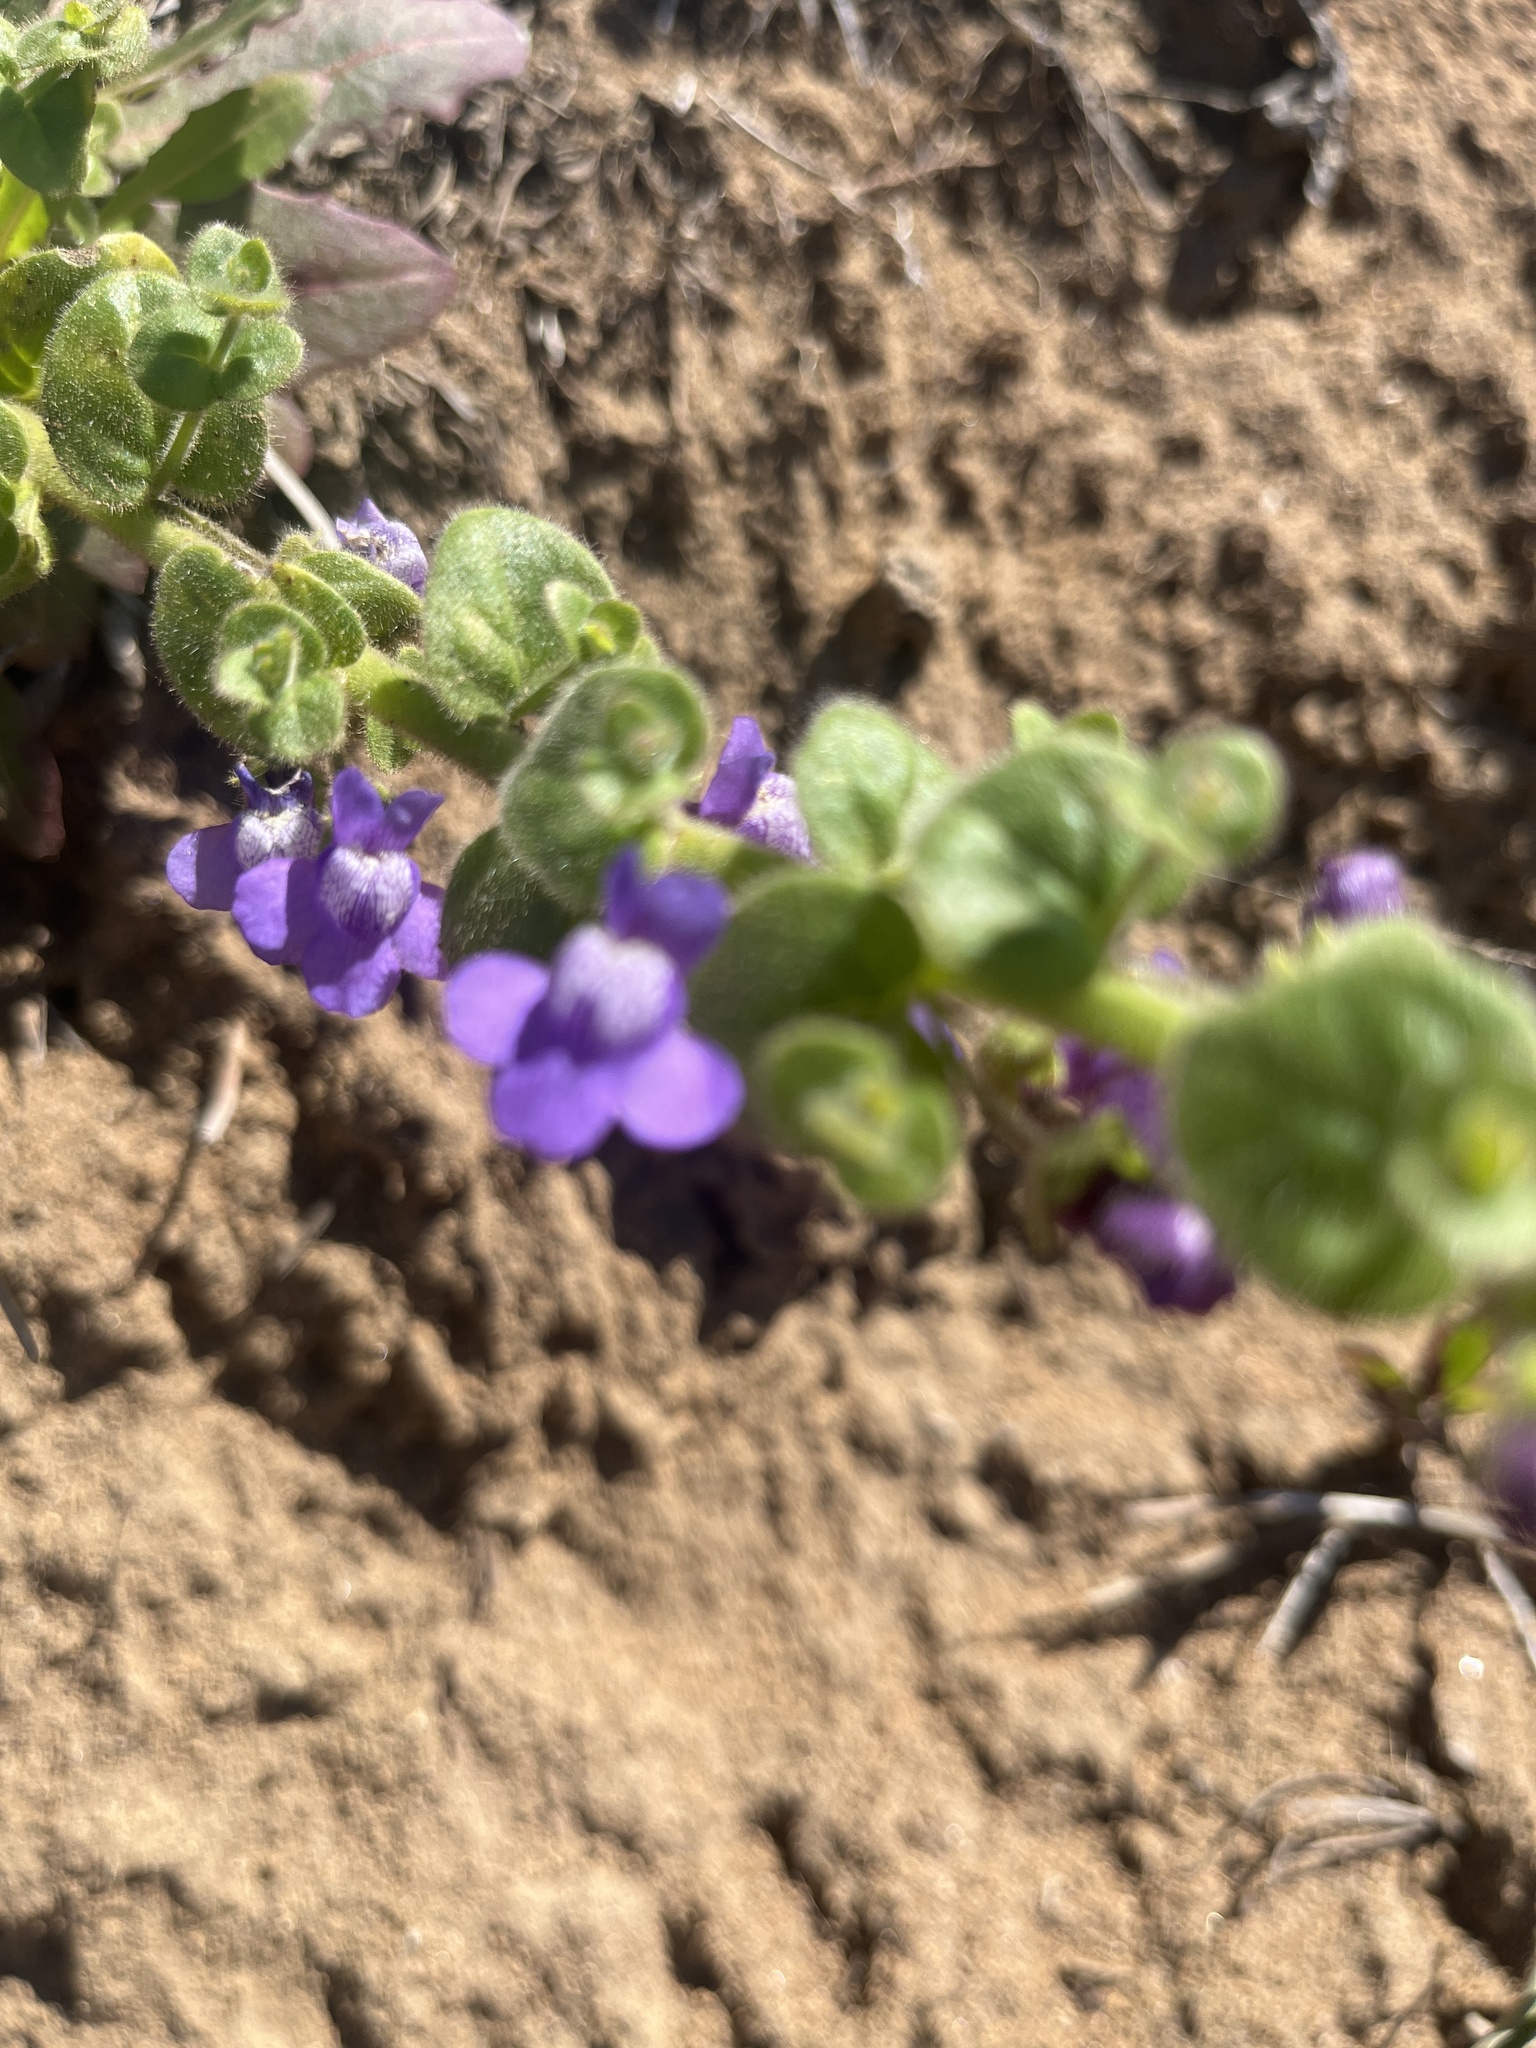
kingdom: Plantae
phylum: Tracheophyta
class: Magnoliopsida
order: Lamiales
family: Plantaginaceae
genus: Sairocarpus
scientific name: Sairocarpus nuttallianus
